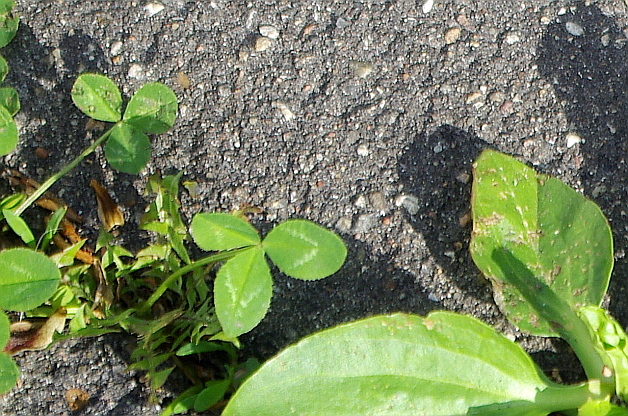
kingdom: Plantae
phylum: Tracheophyta
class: Magnoliopsida
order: Fabales
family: Fabaceae
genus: Trifolium
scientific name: Trifolium repens
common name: White clover
